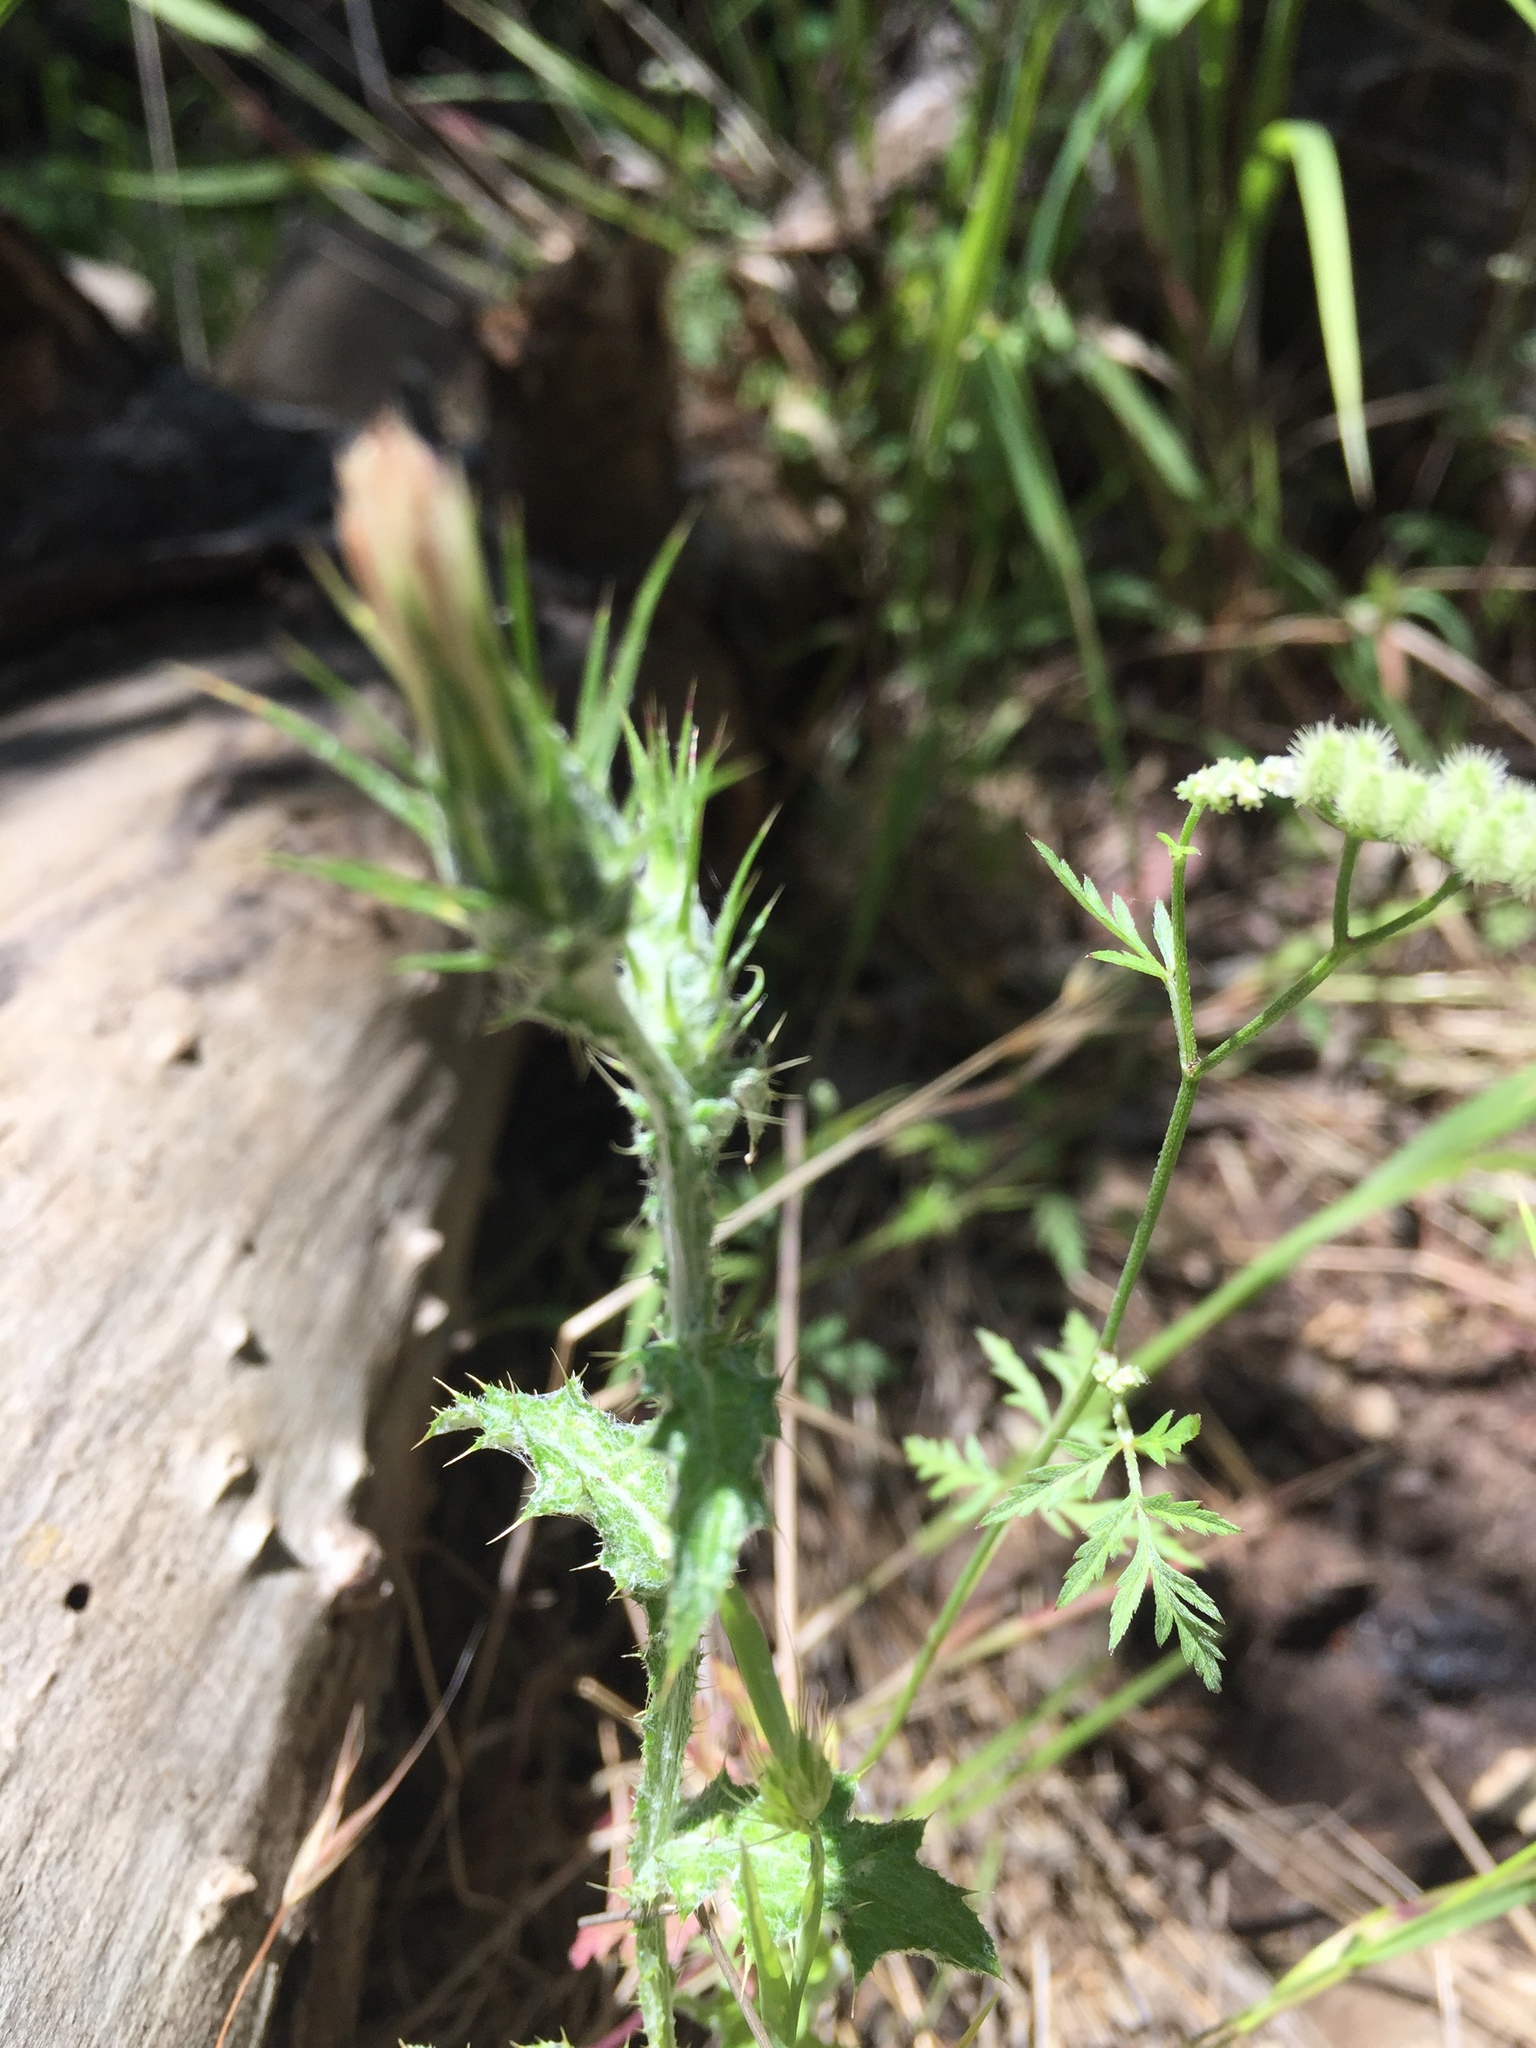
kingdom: Plantae
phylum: Tracheophyta
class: Magnoliopsida
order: Asterales
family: Asteraceae
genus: Carduus
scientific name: Carduus pycnocephalus
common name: Plymouth thistle
